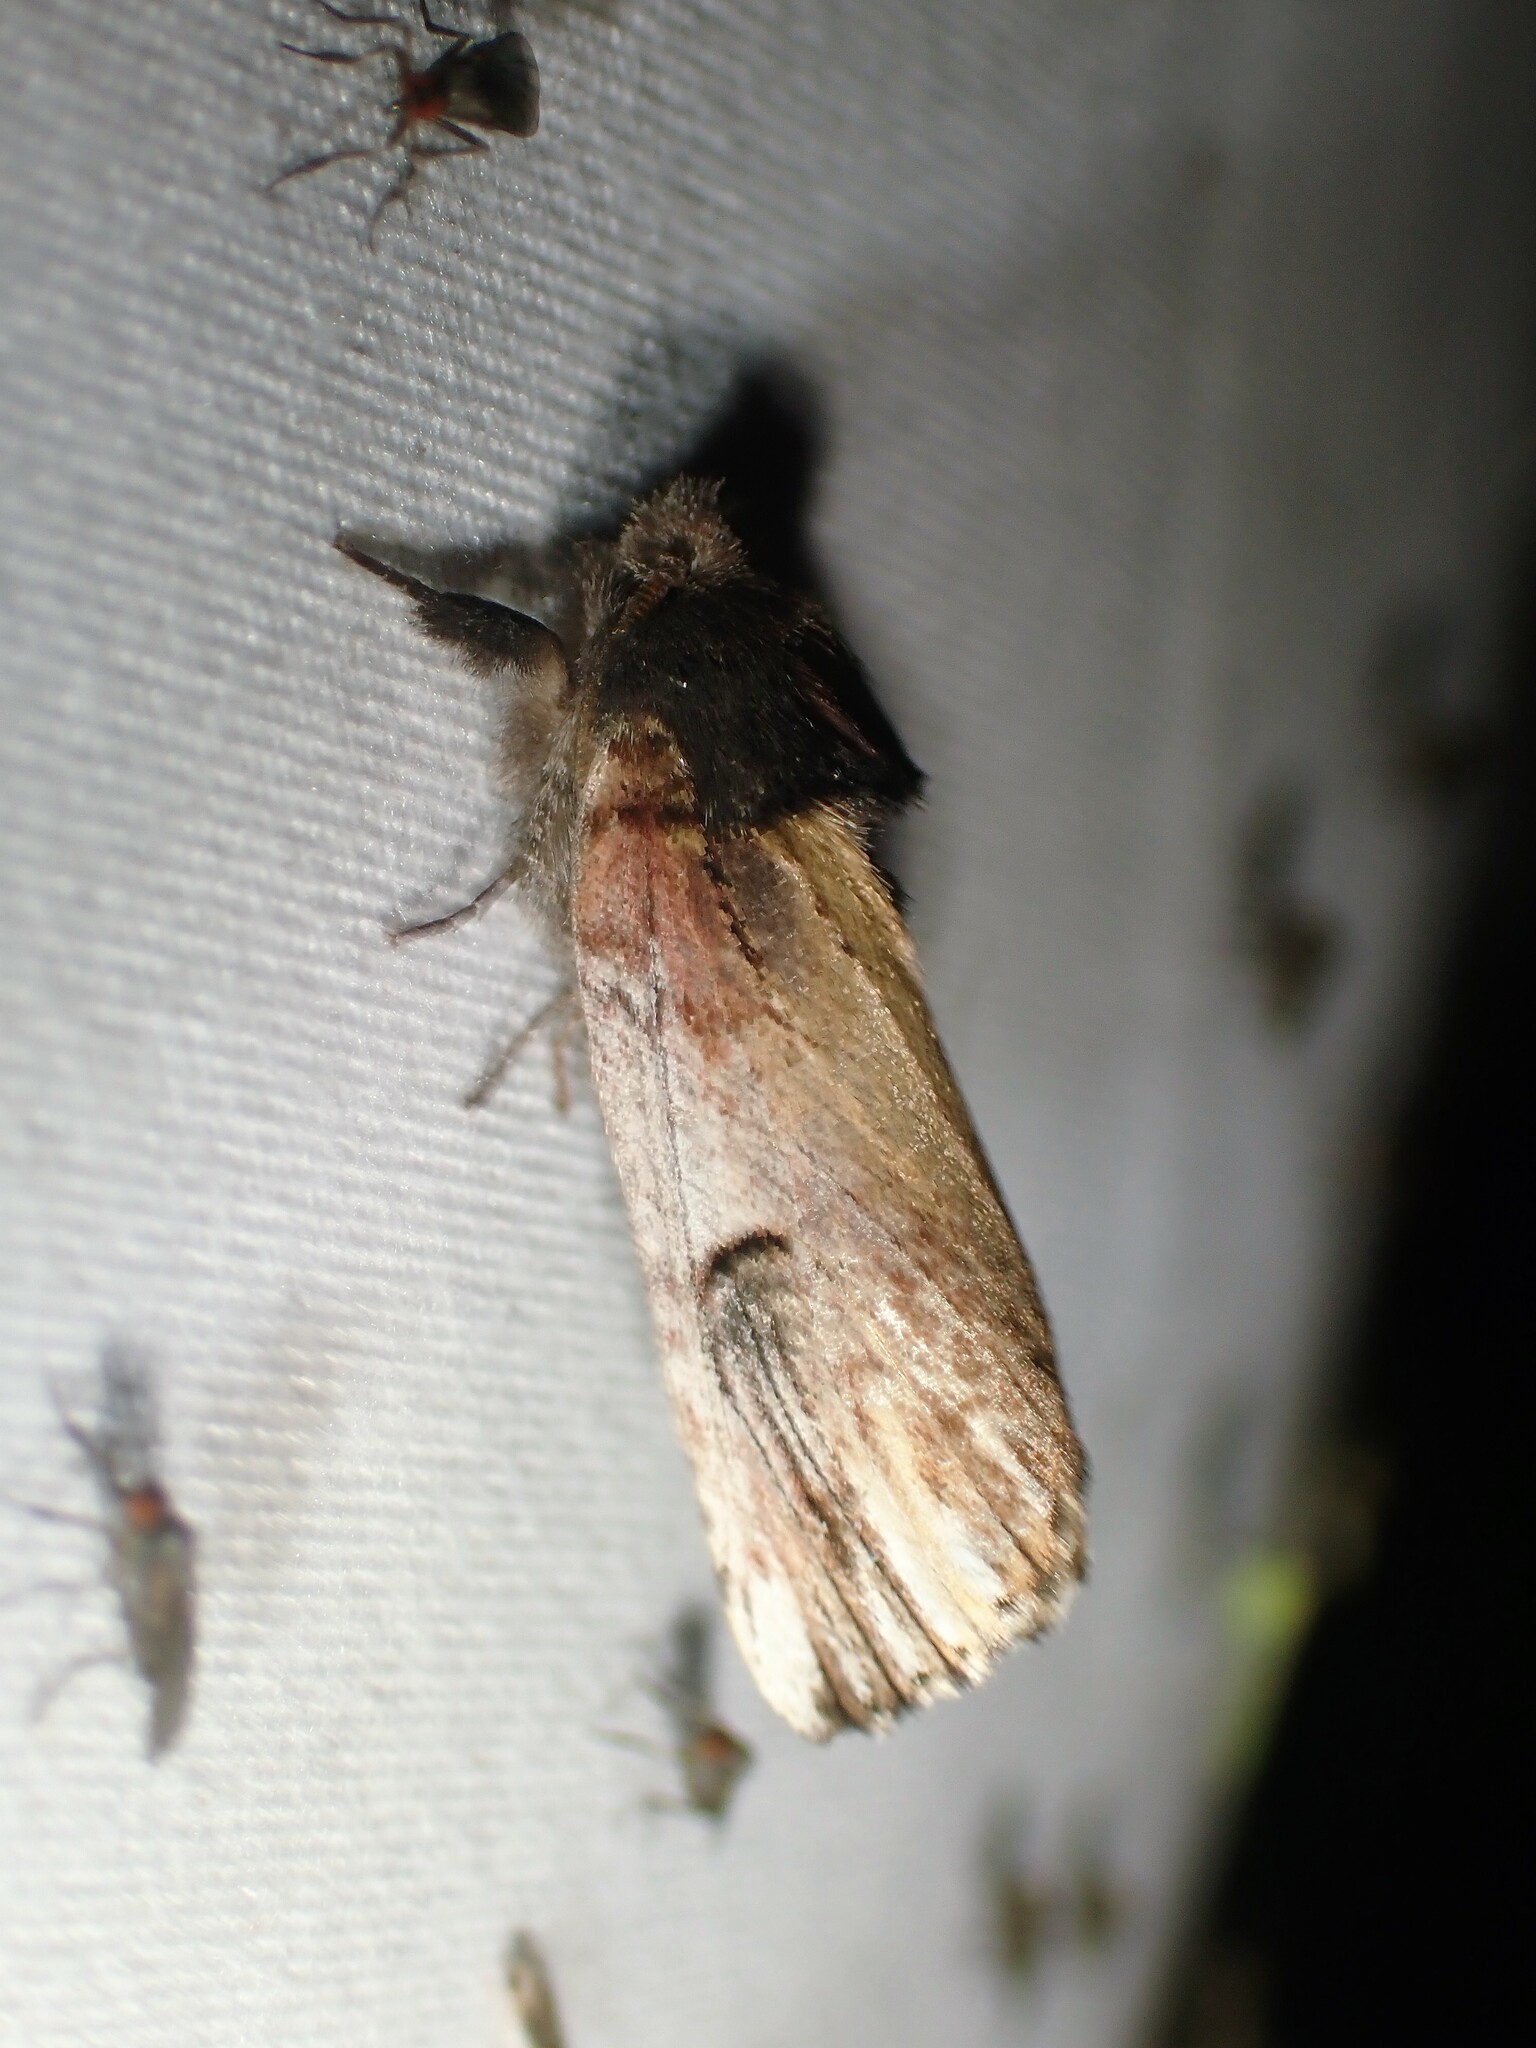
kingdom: Animalia
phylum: Arthropoda
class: Insecta
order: Lepidoptera
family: Notodontidae
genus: Schizura
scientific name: Schizura badia
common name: Chestnut schizura
